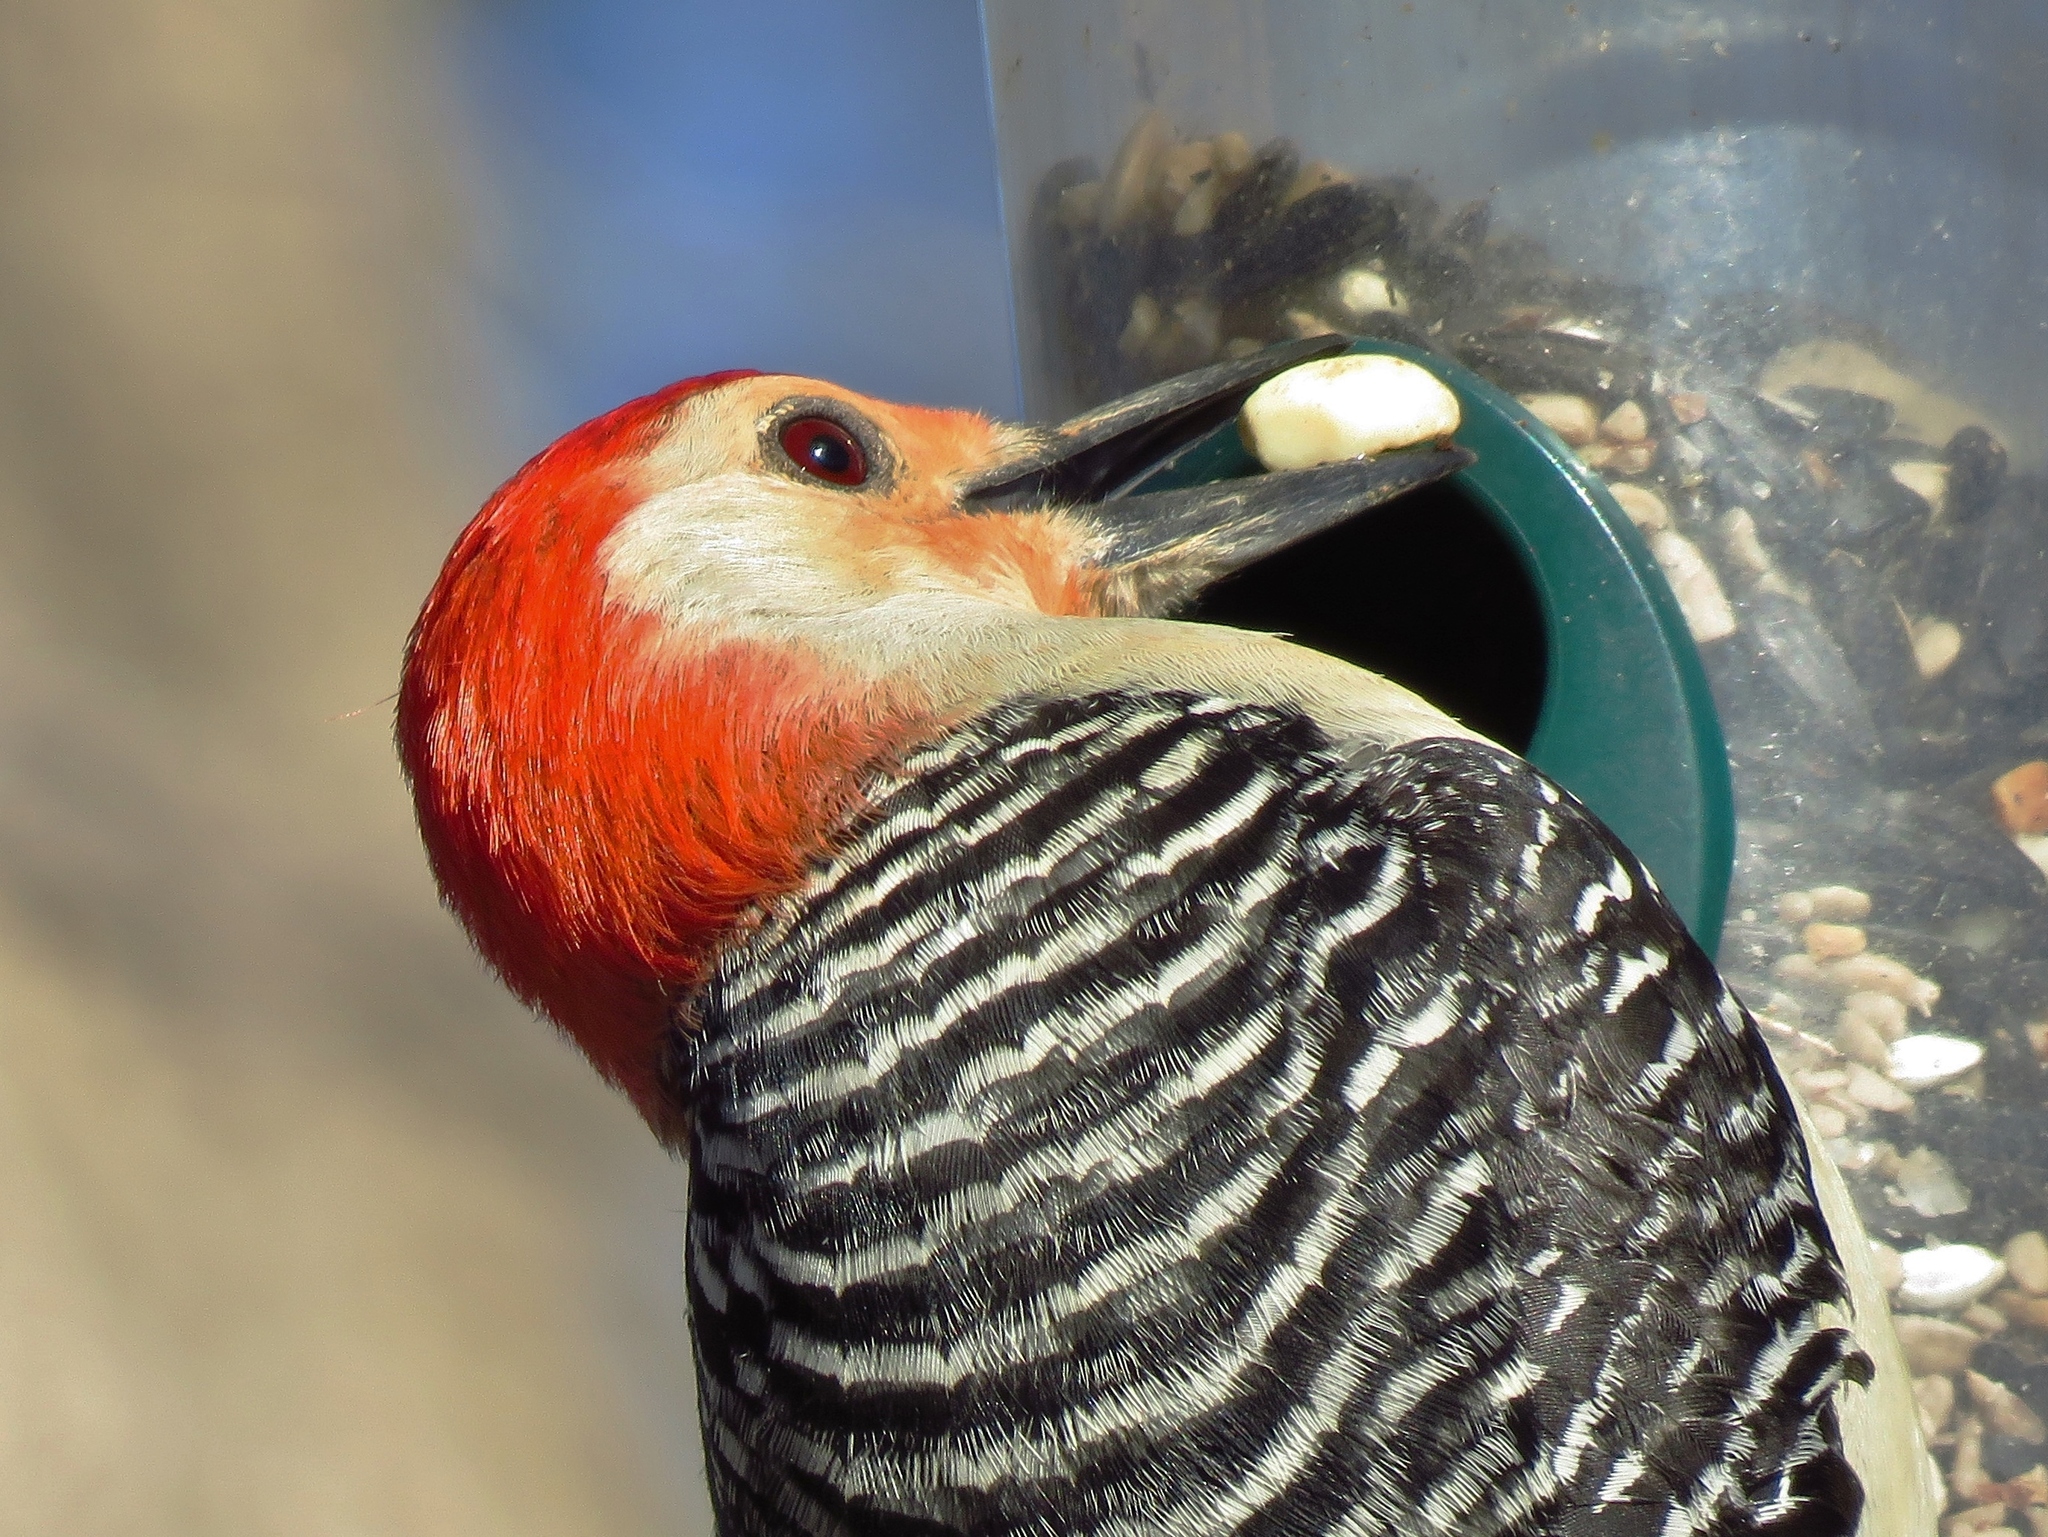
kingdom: Animalia
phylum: Chordata
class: Aves
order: Piciformes
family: Picidae
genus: Melanerpes
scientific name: Melanerpes carolinus
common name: Red-bellied woodpecker
